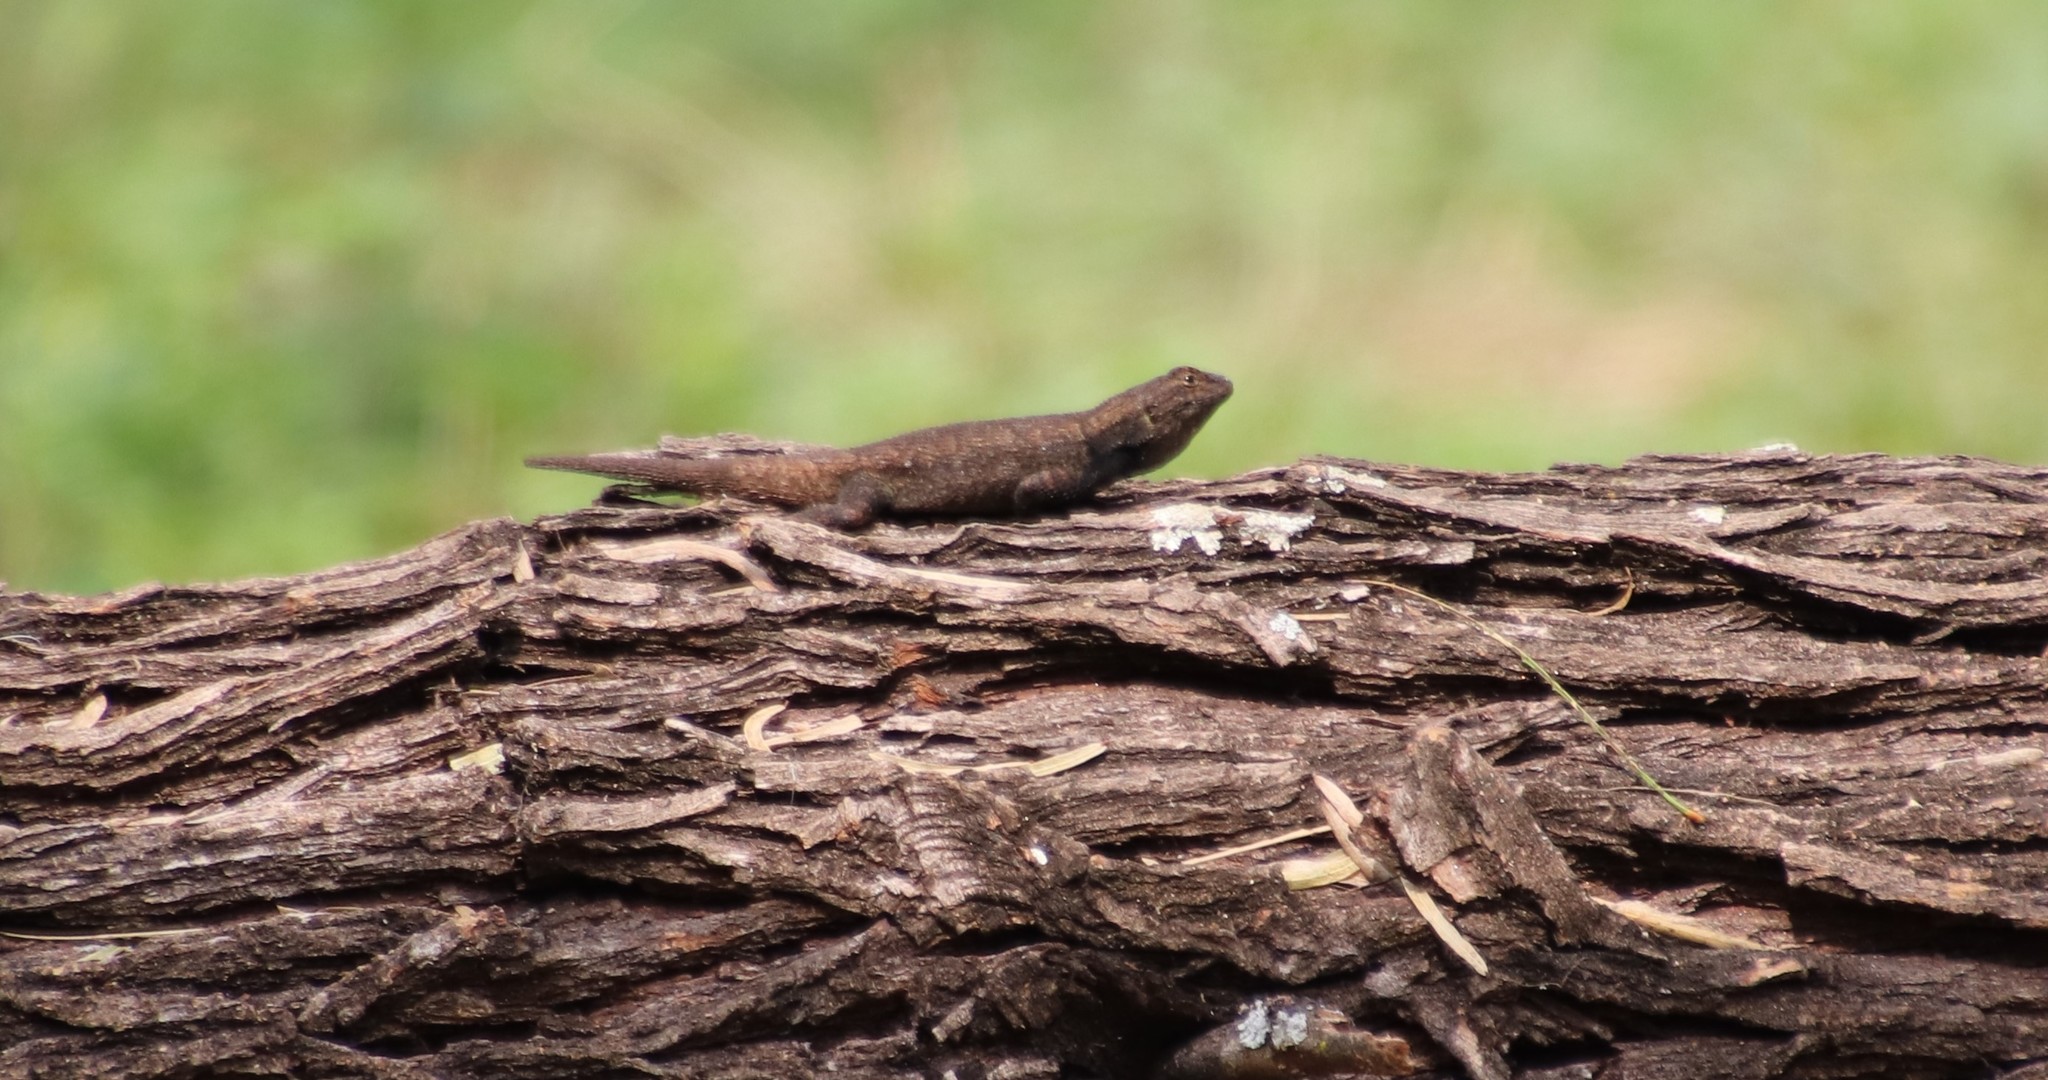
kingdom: Animalia
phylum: Chordata
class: Squamata
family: Phrynosomatidae
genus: Sceloporus
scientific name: Sceloporus grammicus
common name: Mesquite lizard
